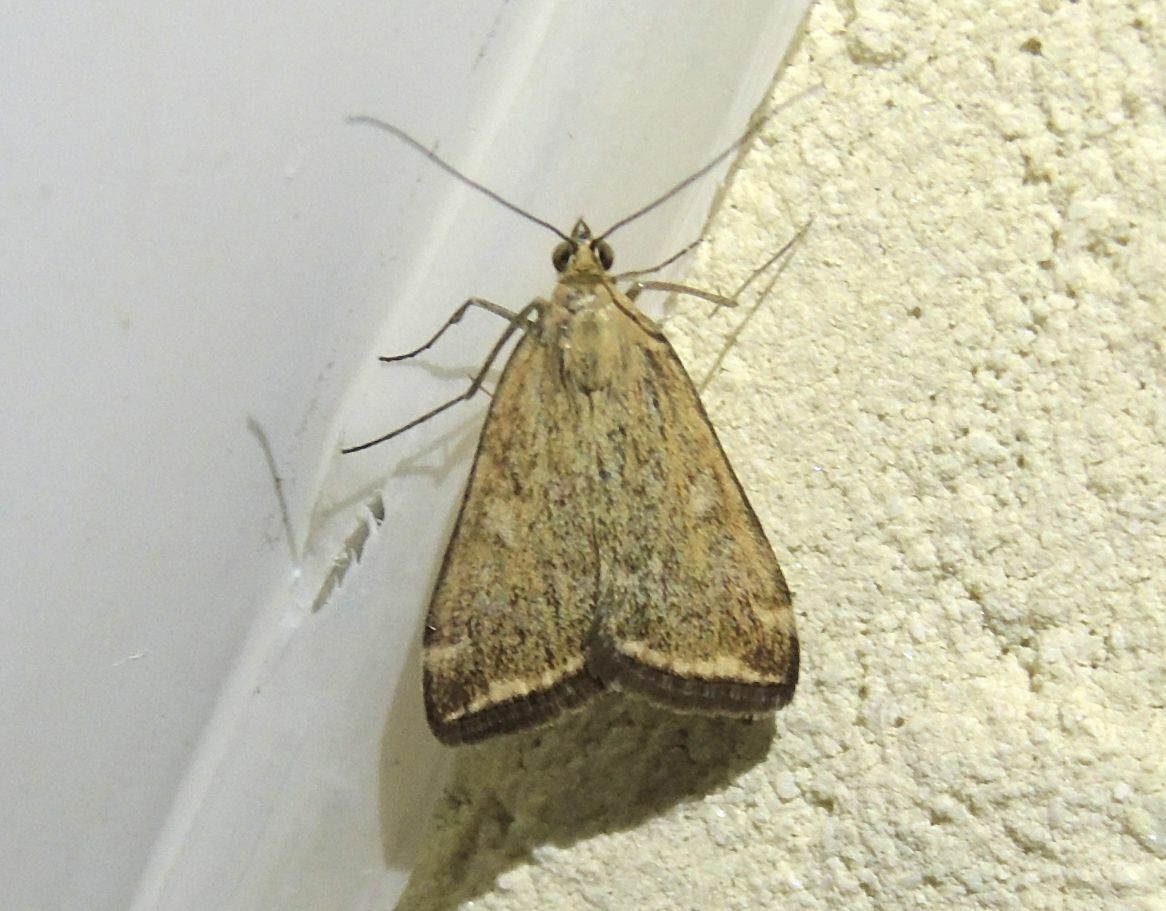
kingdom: Animalia
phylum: Arthropoda
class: Insecta
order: Lepidoptera
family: Crambidae
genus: Loxostege
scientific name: Loxostege sticticalis
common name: Crambid moth
